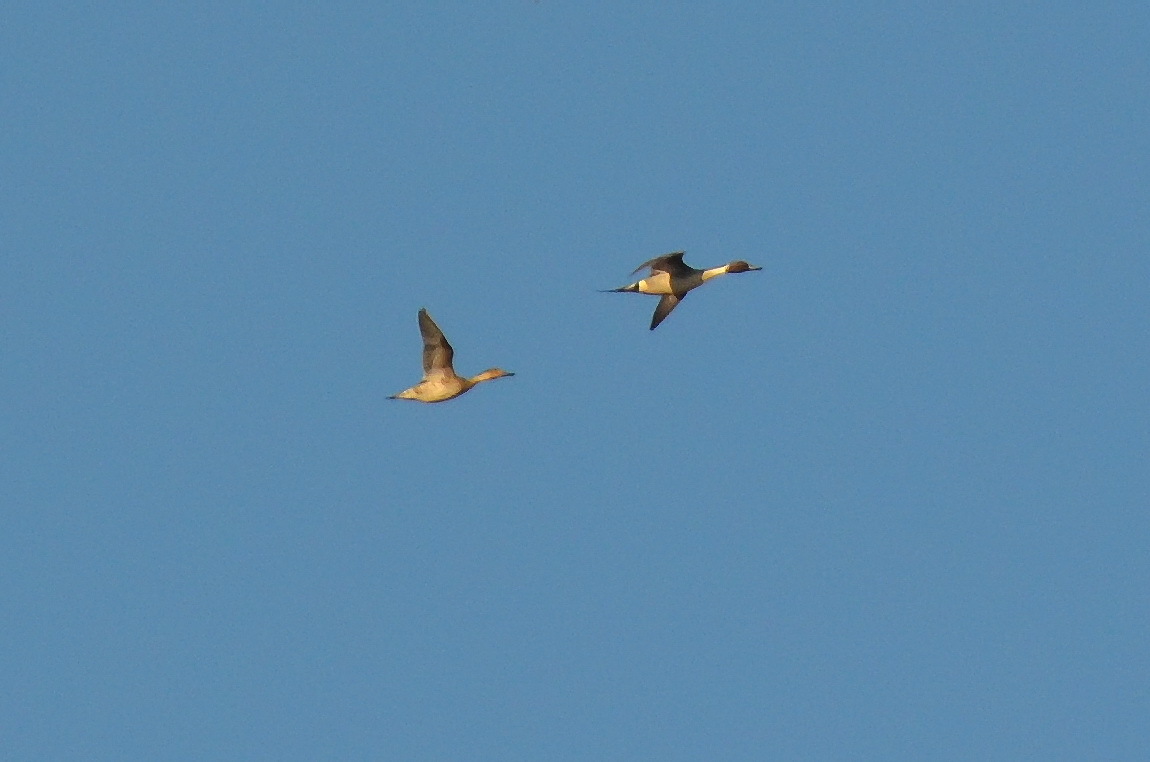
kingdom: Animalia
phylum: Chordata
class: Aves
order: Anseriformes
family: Anatidae
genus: Anas
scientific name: Anas acuta
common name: Northern pintail
